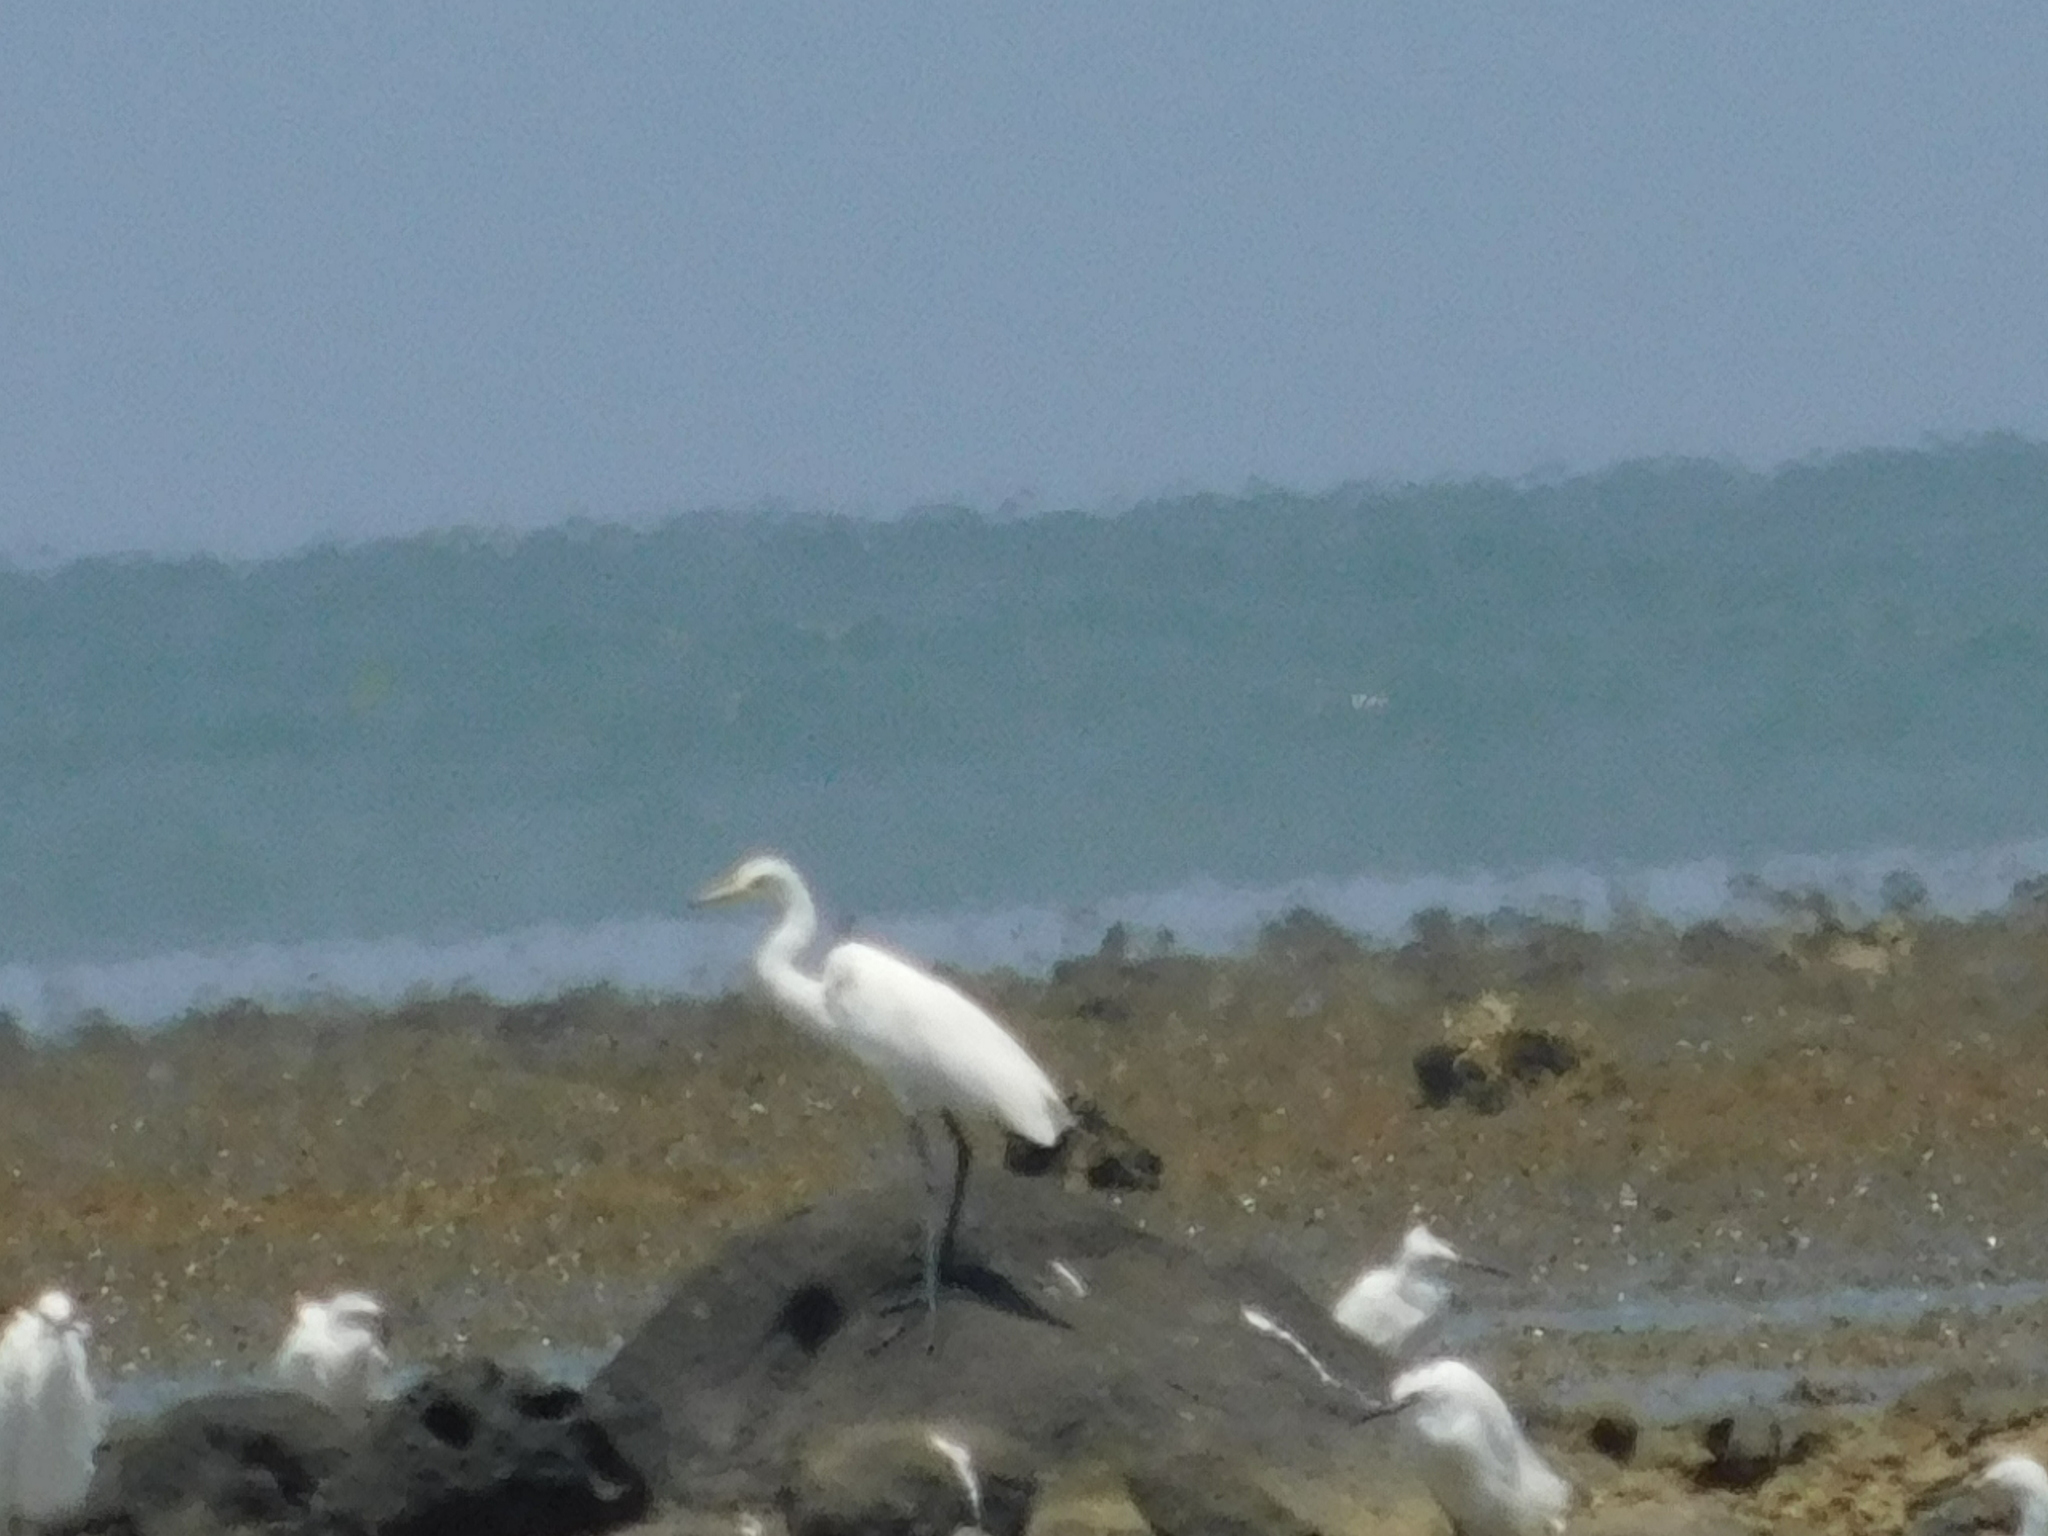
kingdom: Animalia
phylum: Chordata
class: Aves
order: Pelecaniformes
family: Ardeidae
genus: Egretta
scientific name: Egretta intermedia
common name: Intermediate egret
